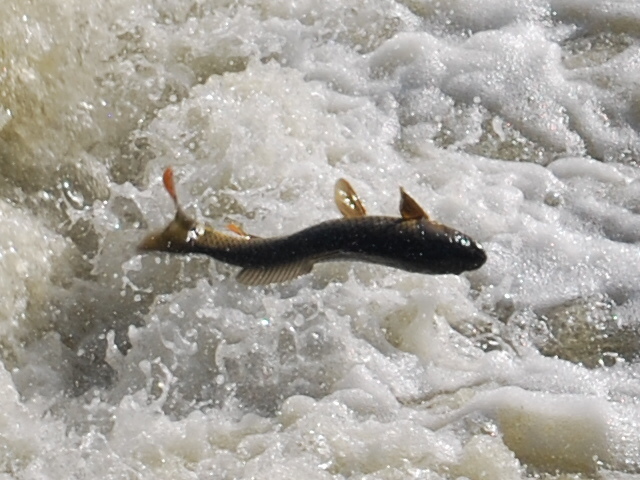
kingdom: Animalia
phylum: Chordata
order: Cypriniformes
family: Cyprinidae
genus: Cyprinus
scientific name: Cyprinus carpio
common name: Common carp
